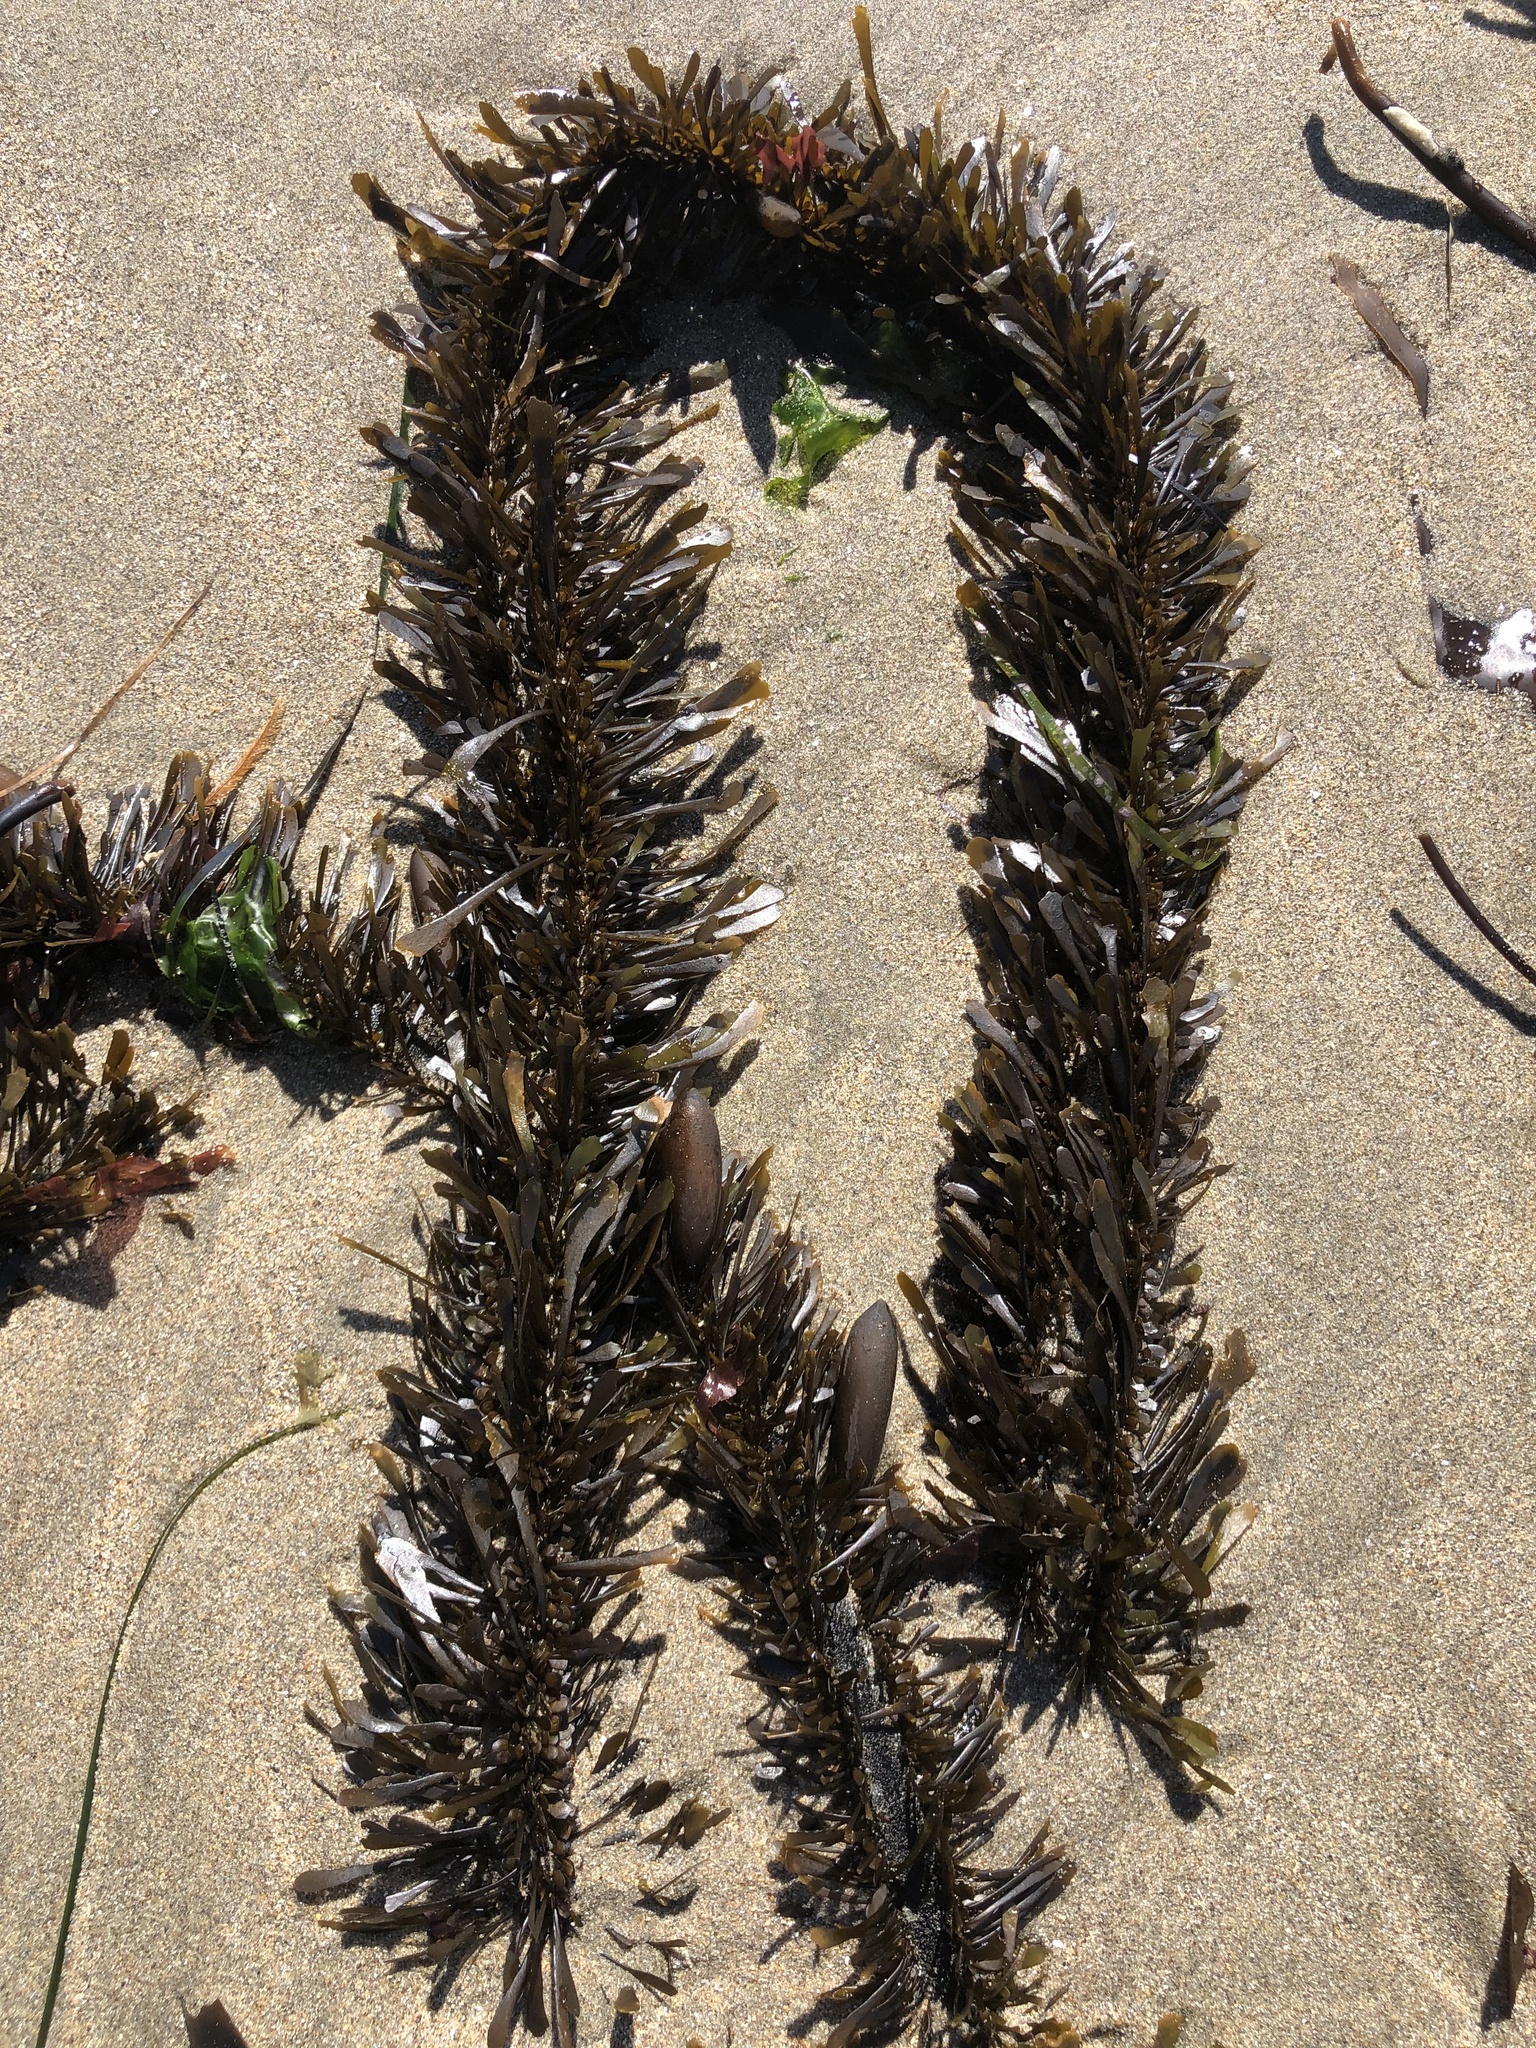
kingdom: Chromista
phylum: Ochrophyta
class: Phaeophyceae
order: Laminariales
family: Lessoniaceae
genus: Egregia
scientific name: Egregia menziesii
